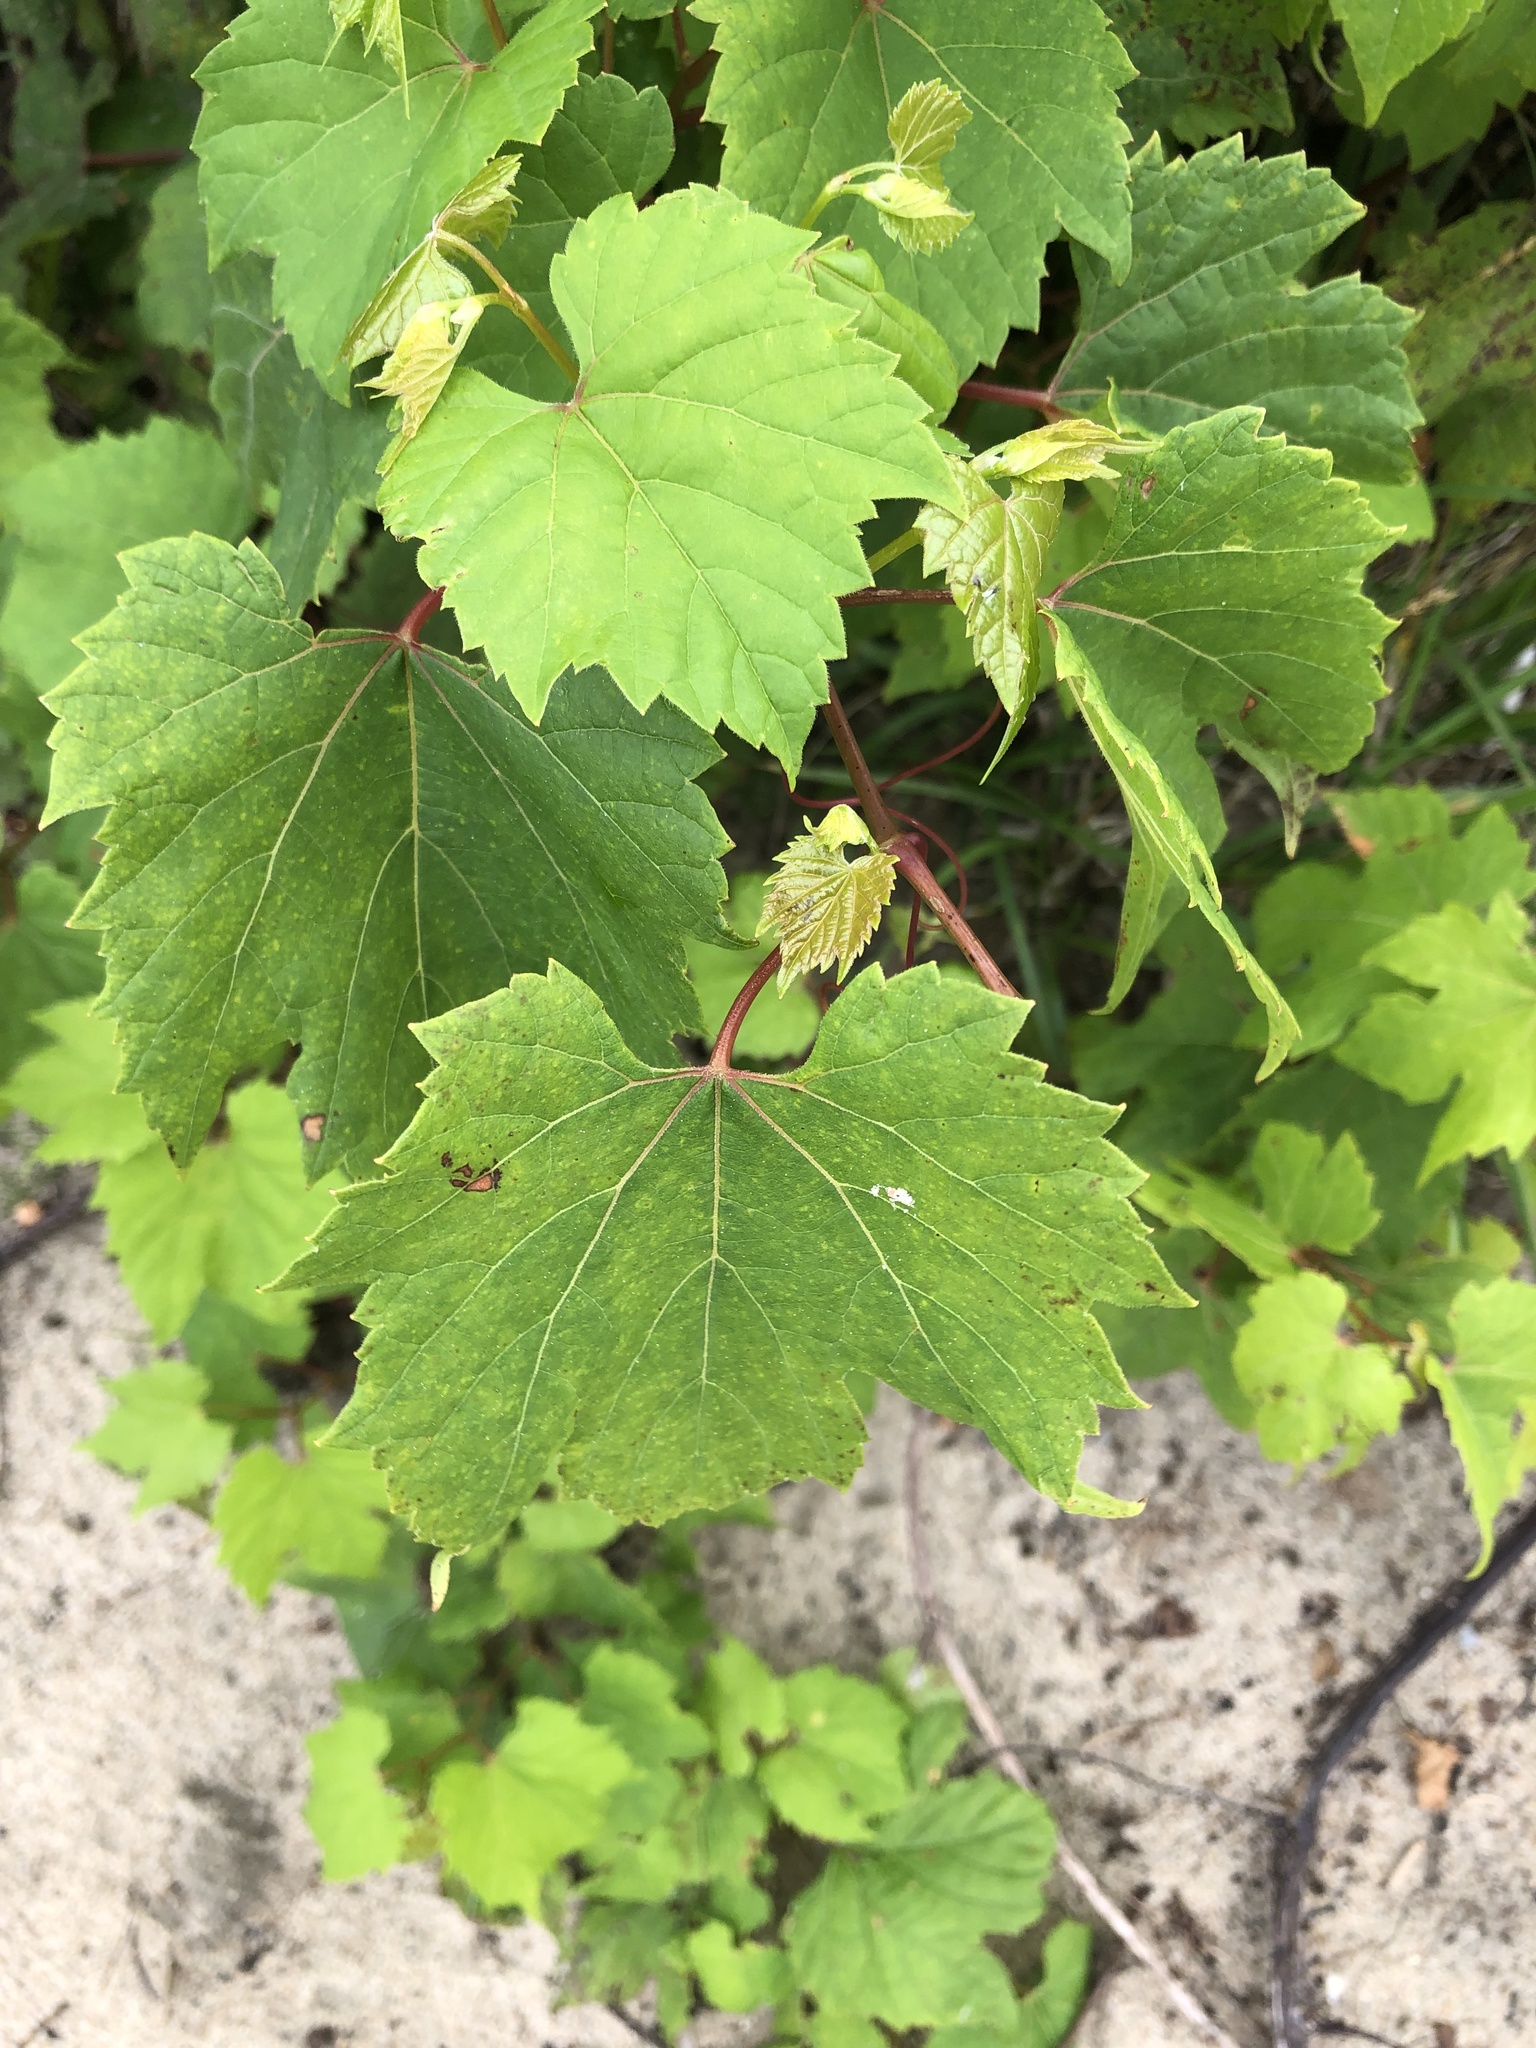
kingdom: Plantae
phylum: Tracheophyta
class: Magnoliopsida
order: Vitales
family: Vitaceae
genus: Vitis
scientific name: Vitis riparia
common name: Frost grape
